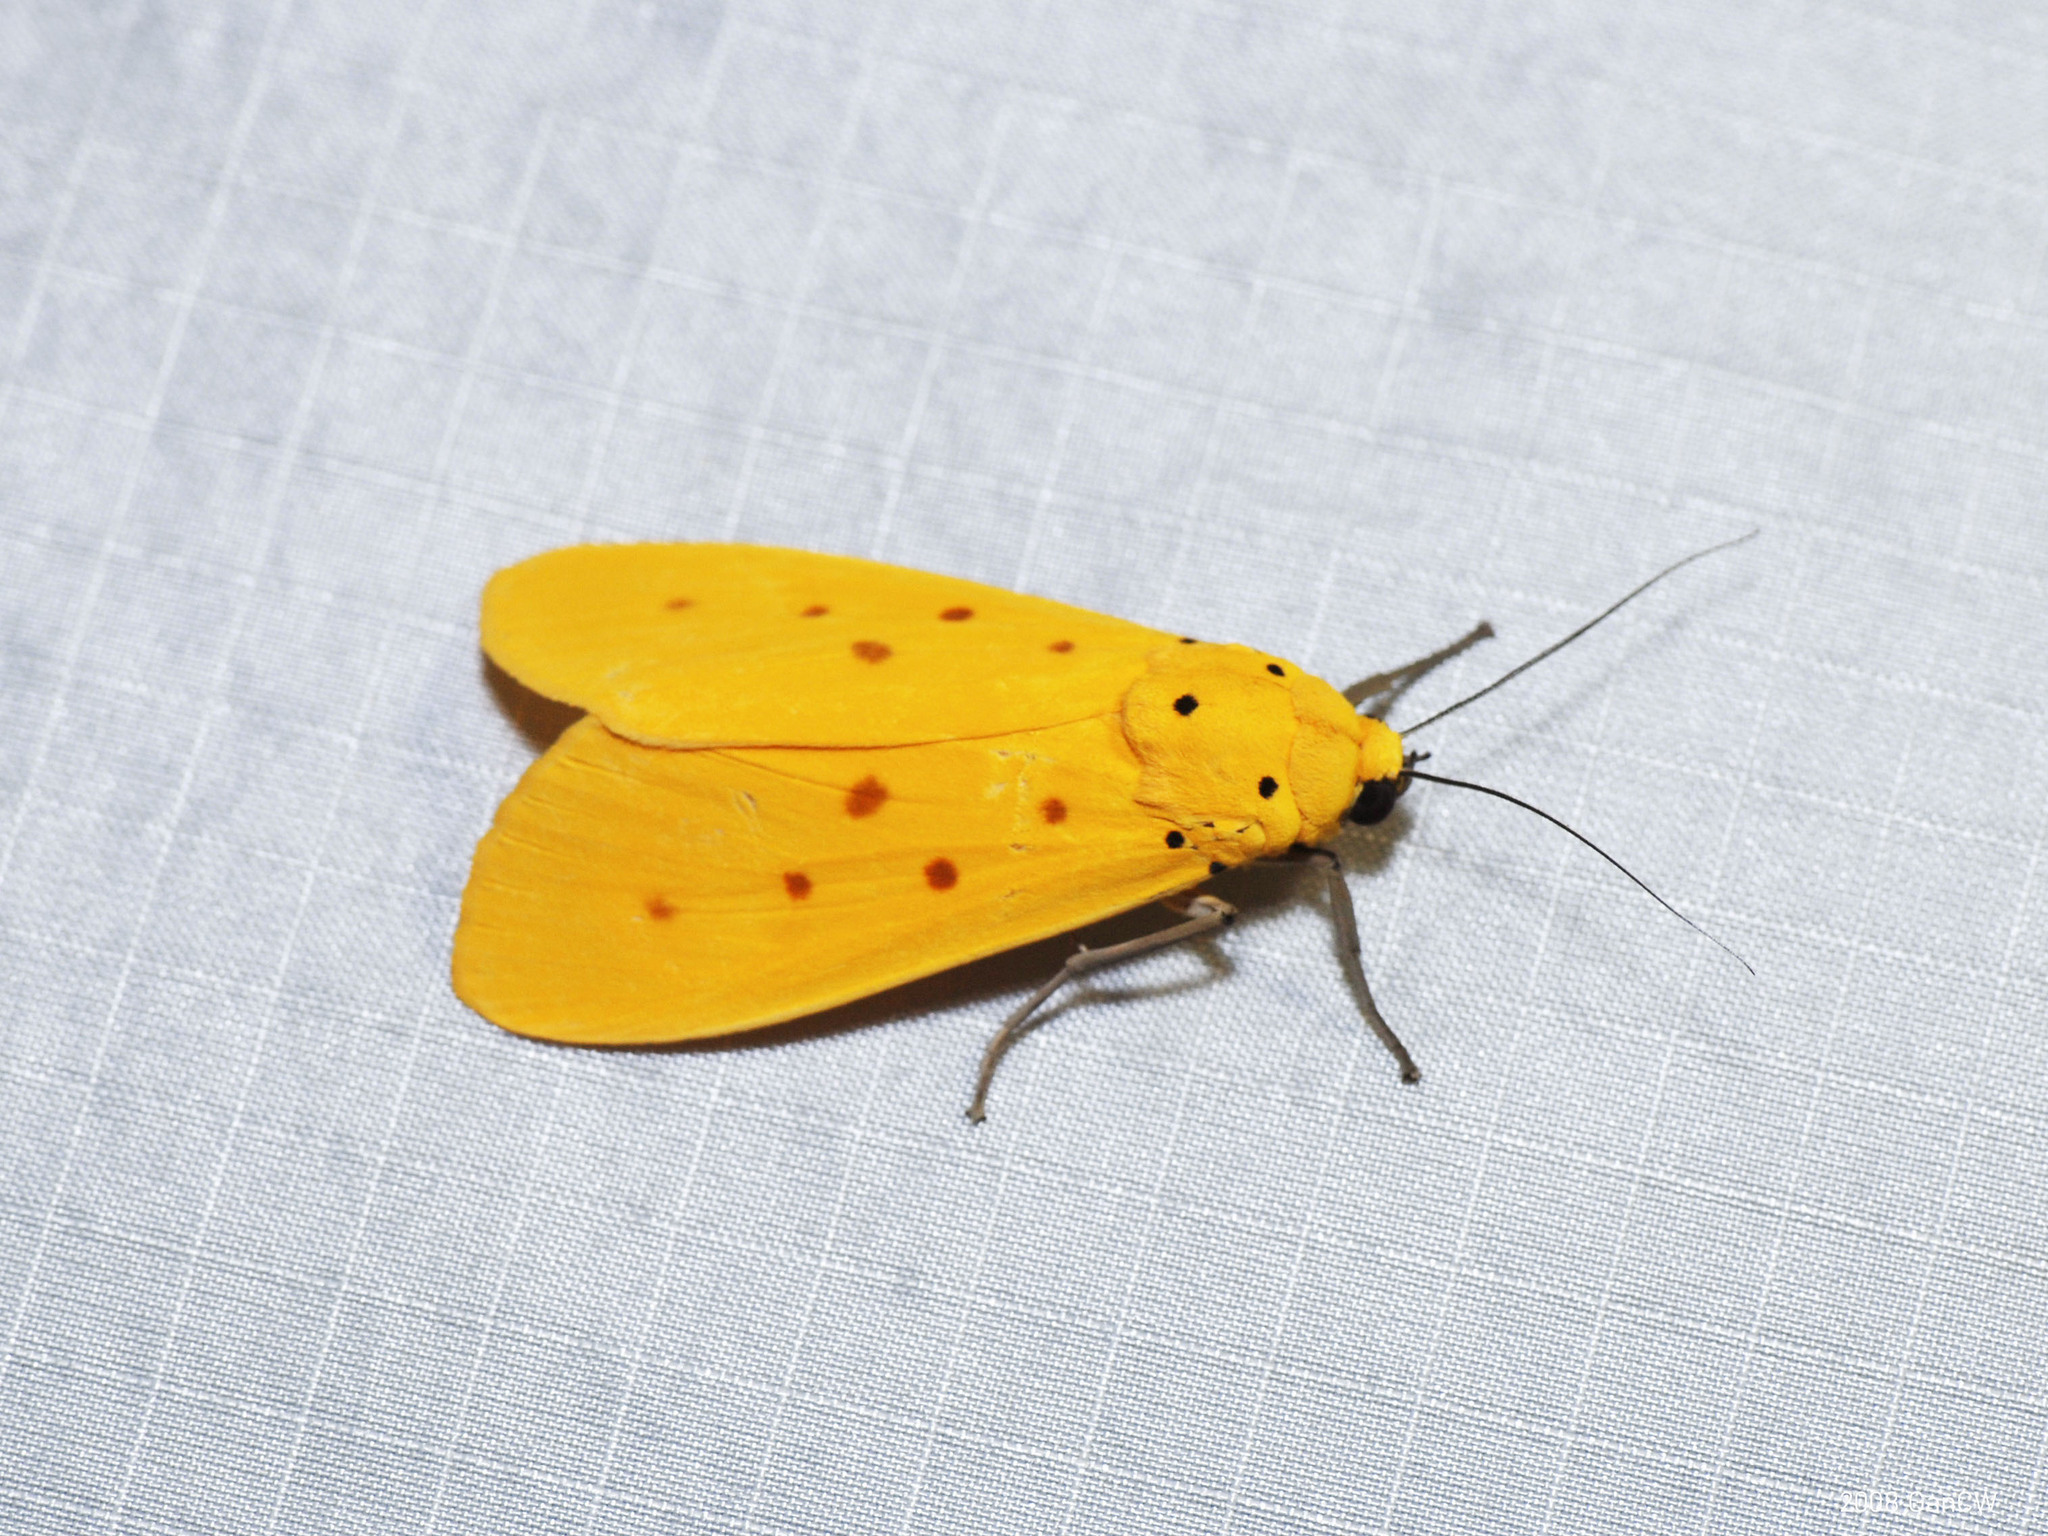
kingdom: Animalia
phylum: Arthropoda
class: Insecta
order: Lepidoptera
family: Noctuidae
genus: Agape
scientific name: Agape chloropyga
